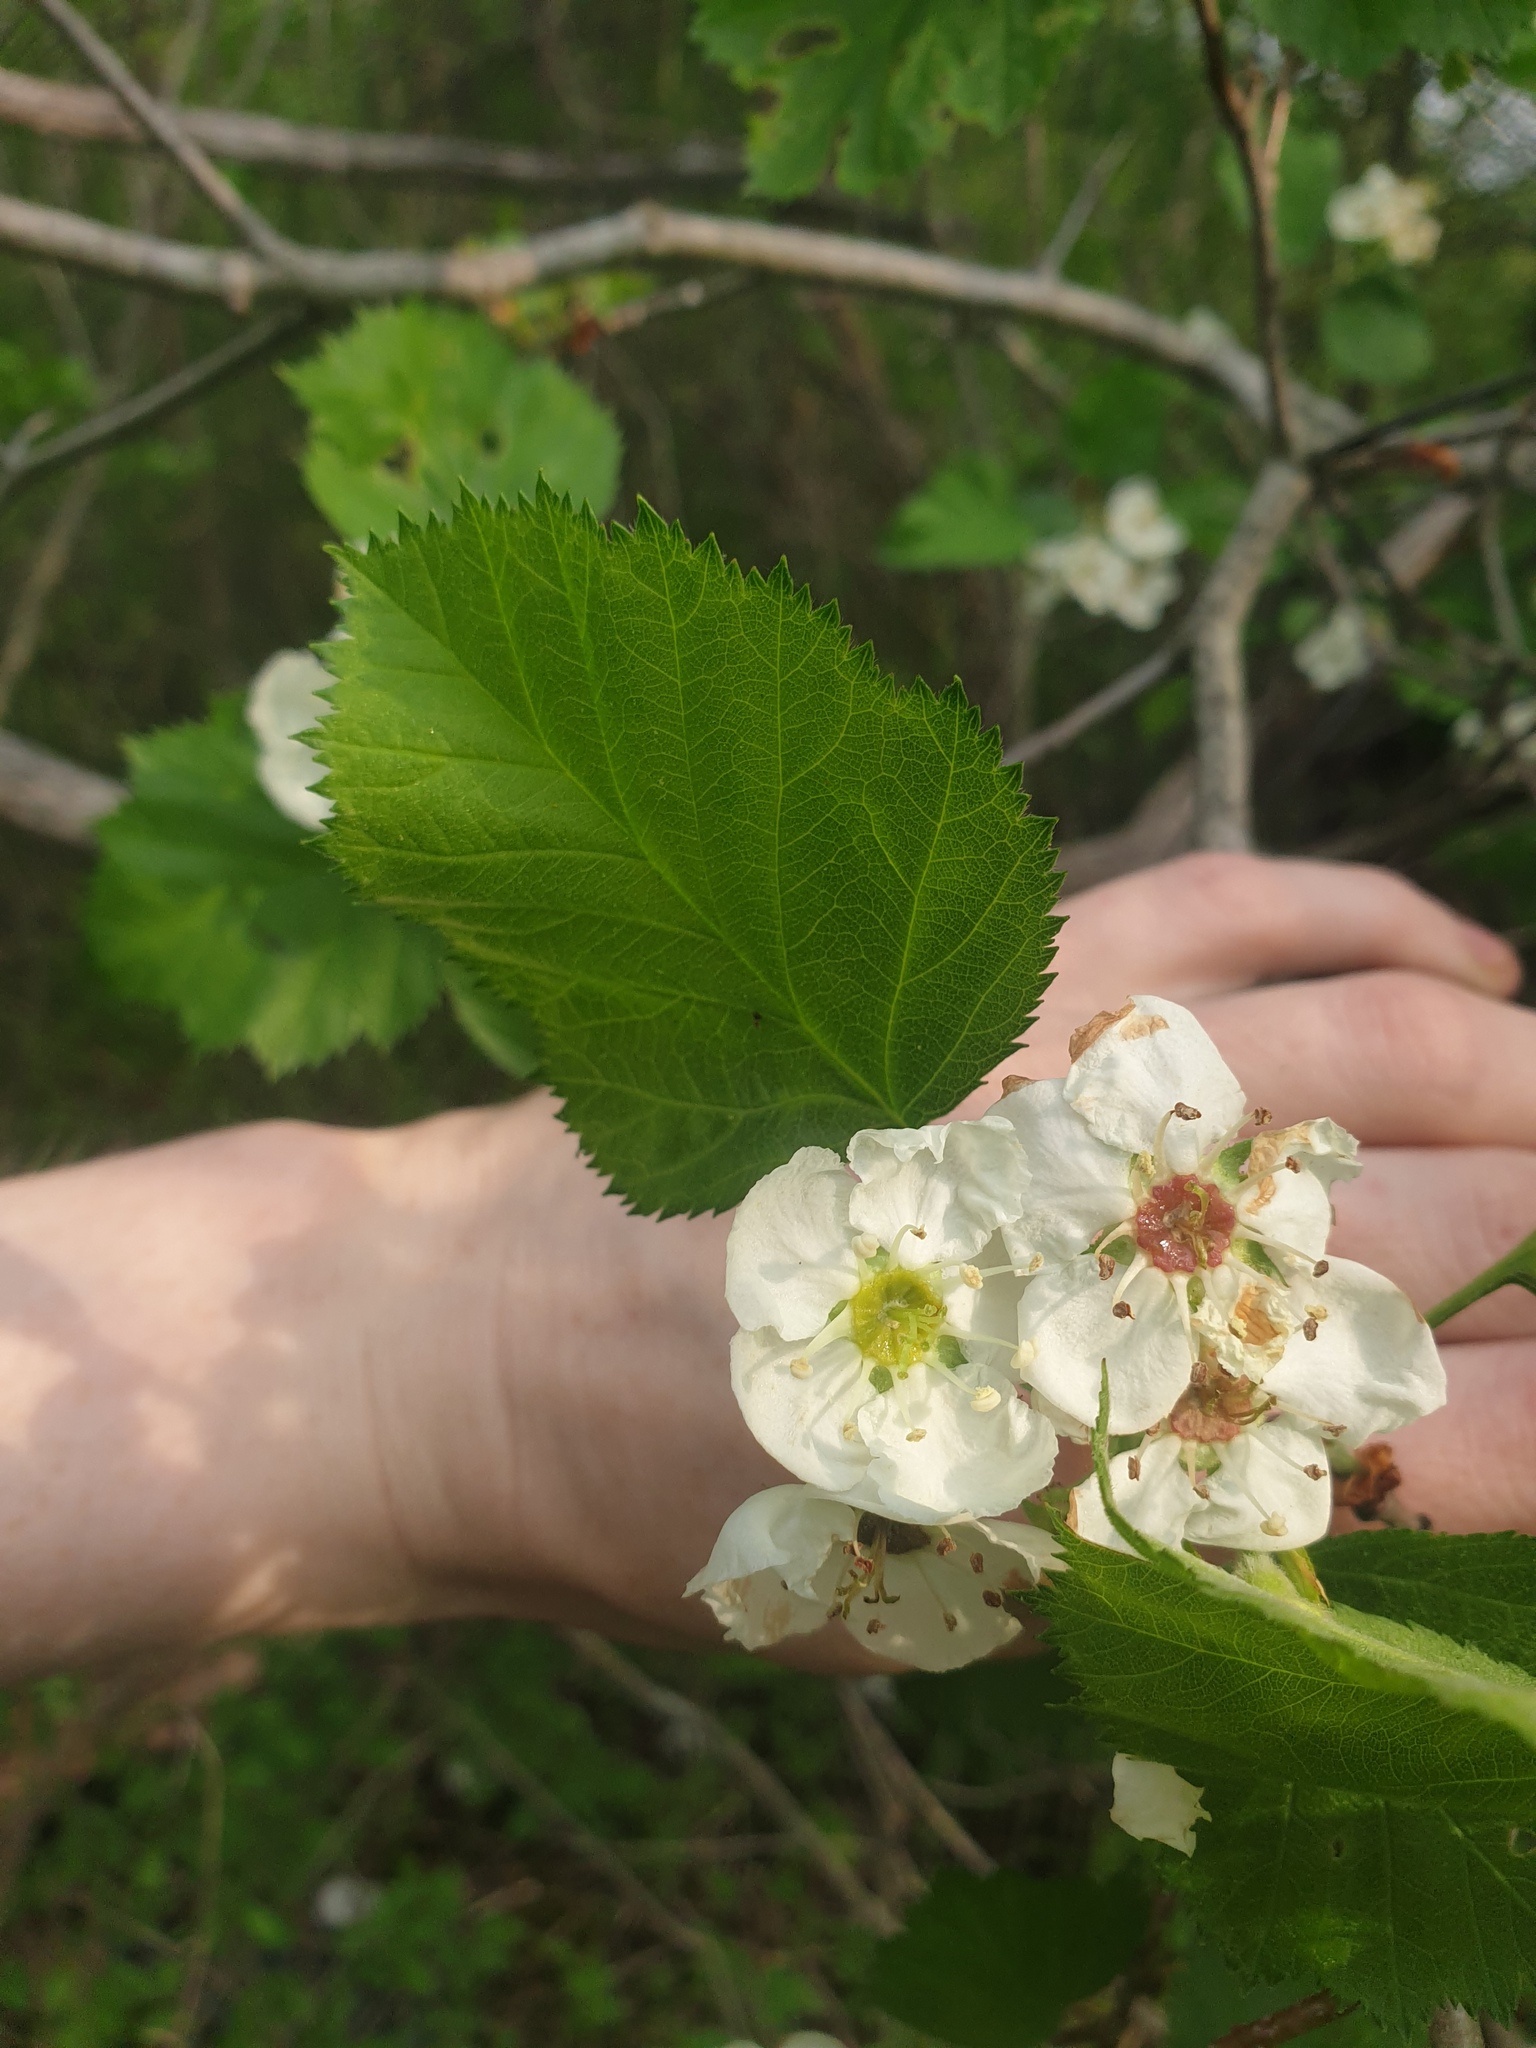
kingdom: Plantae
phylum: Tracheophyta
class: Magnoliopsida
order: Rosales
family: Rosaceae
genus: Crataegus
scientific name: Crataegus submollis
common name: Hairy cockspurthorn
